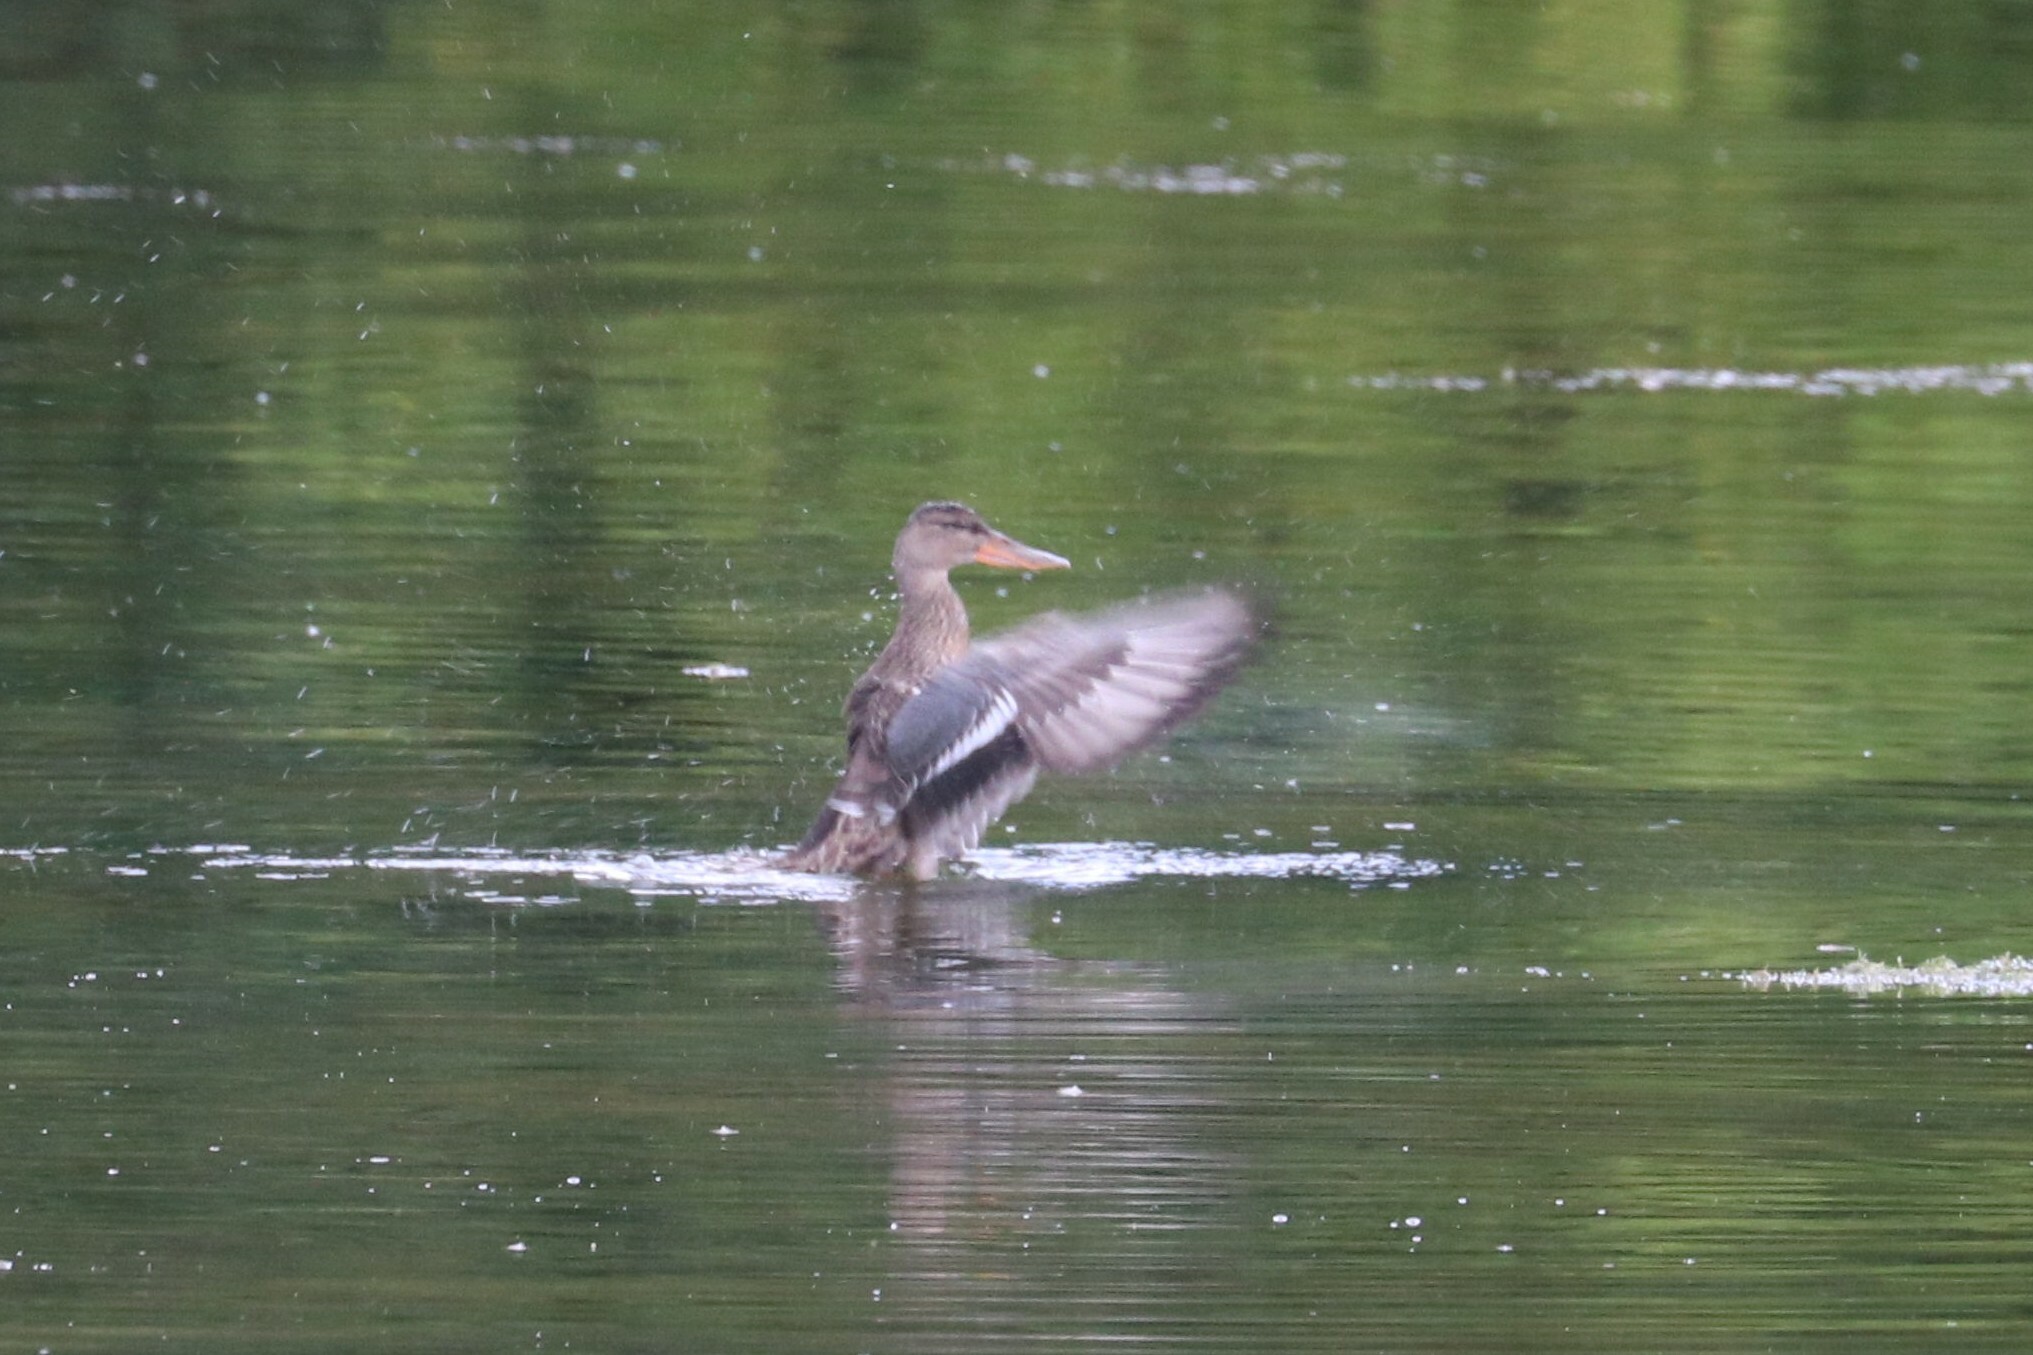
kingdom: Animalia
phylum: Chordata
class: Aves
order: Anseriformes
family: Anatidae
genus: Spatula
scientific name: Spatula clypeata
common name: Northern shoveler
